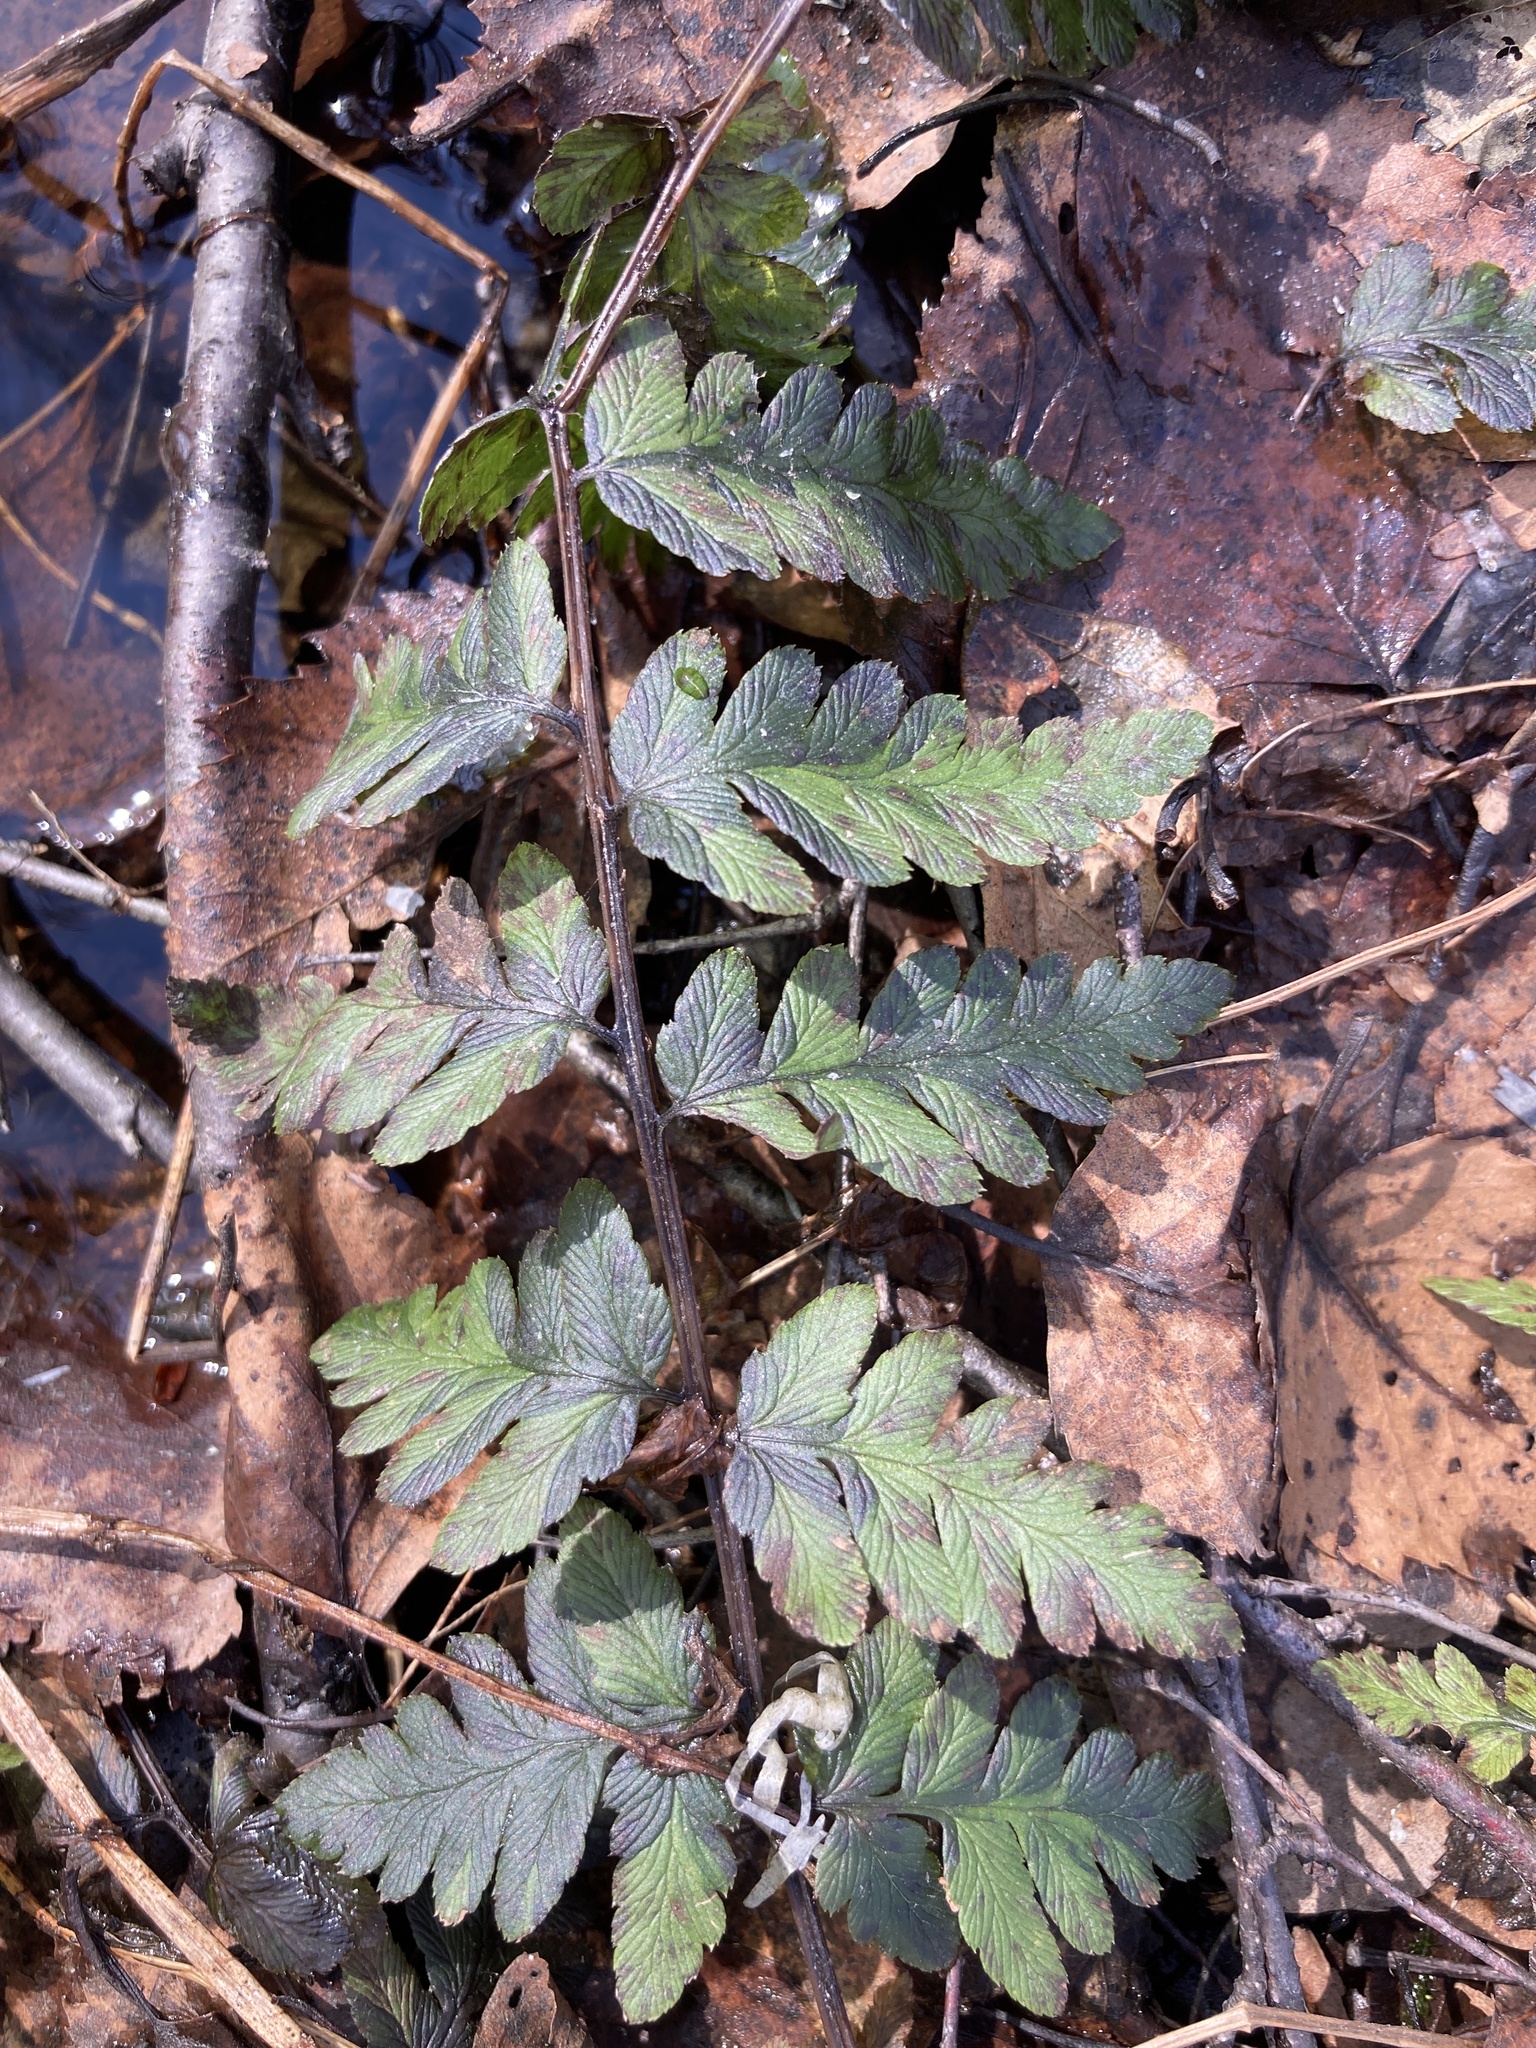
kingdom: Plantae
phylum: Tracheophyta
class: Polypodiopsida
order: Polypodiales
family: Dryopteridaceae
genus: Dryopteris
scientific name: Dryopteris cristata
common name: Crested wood fern
